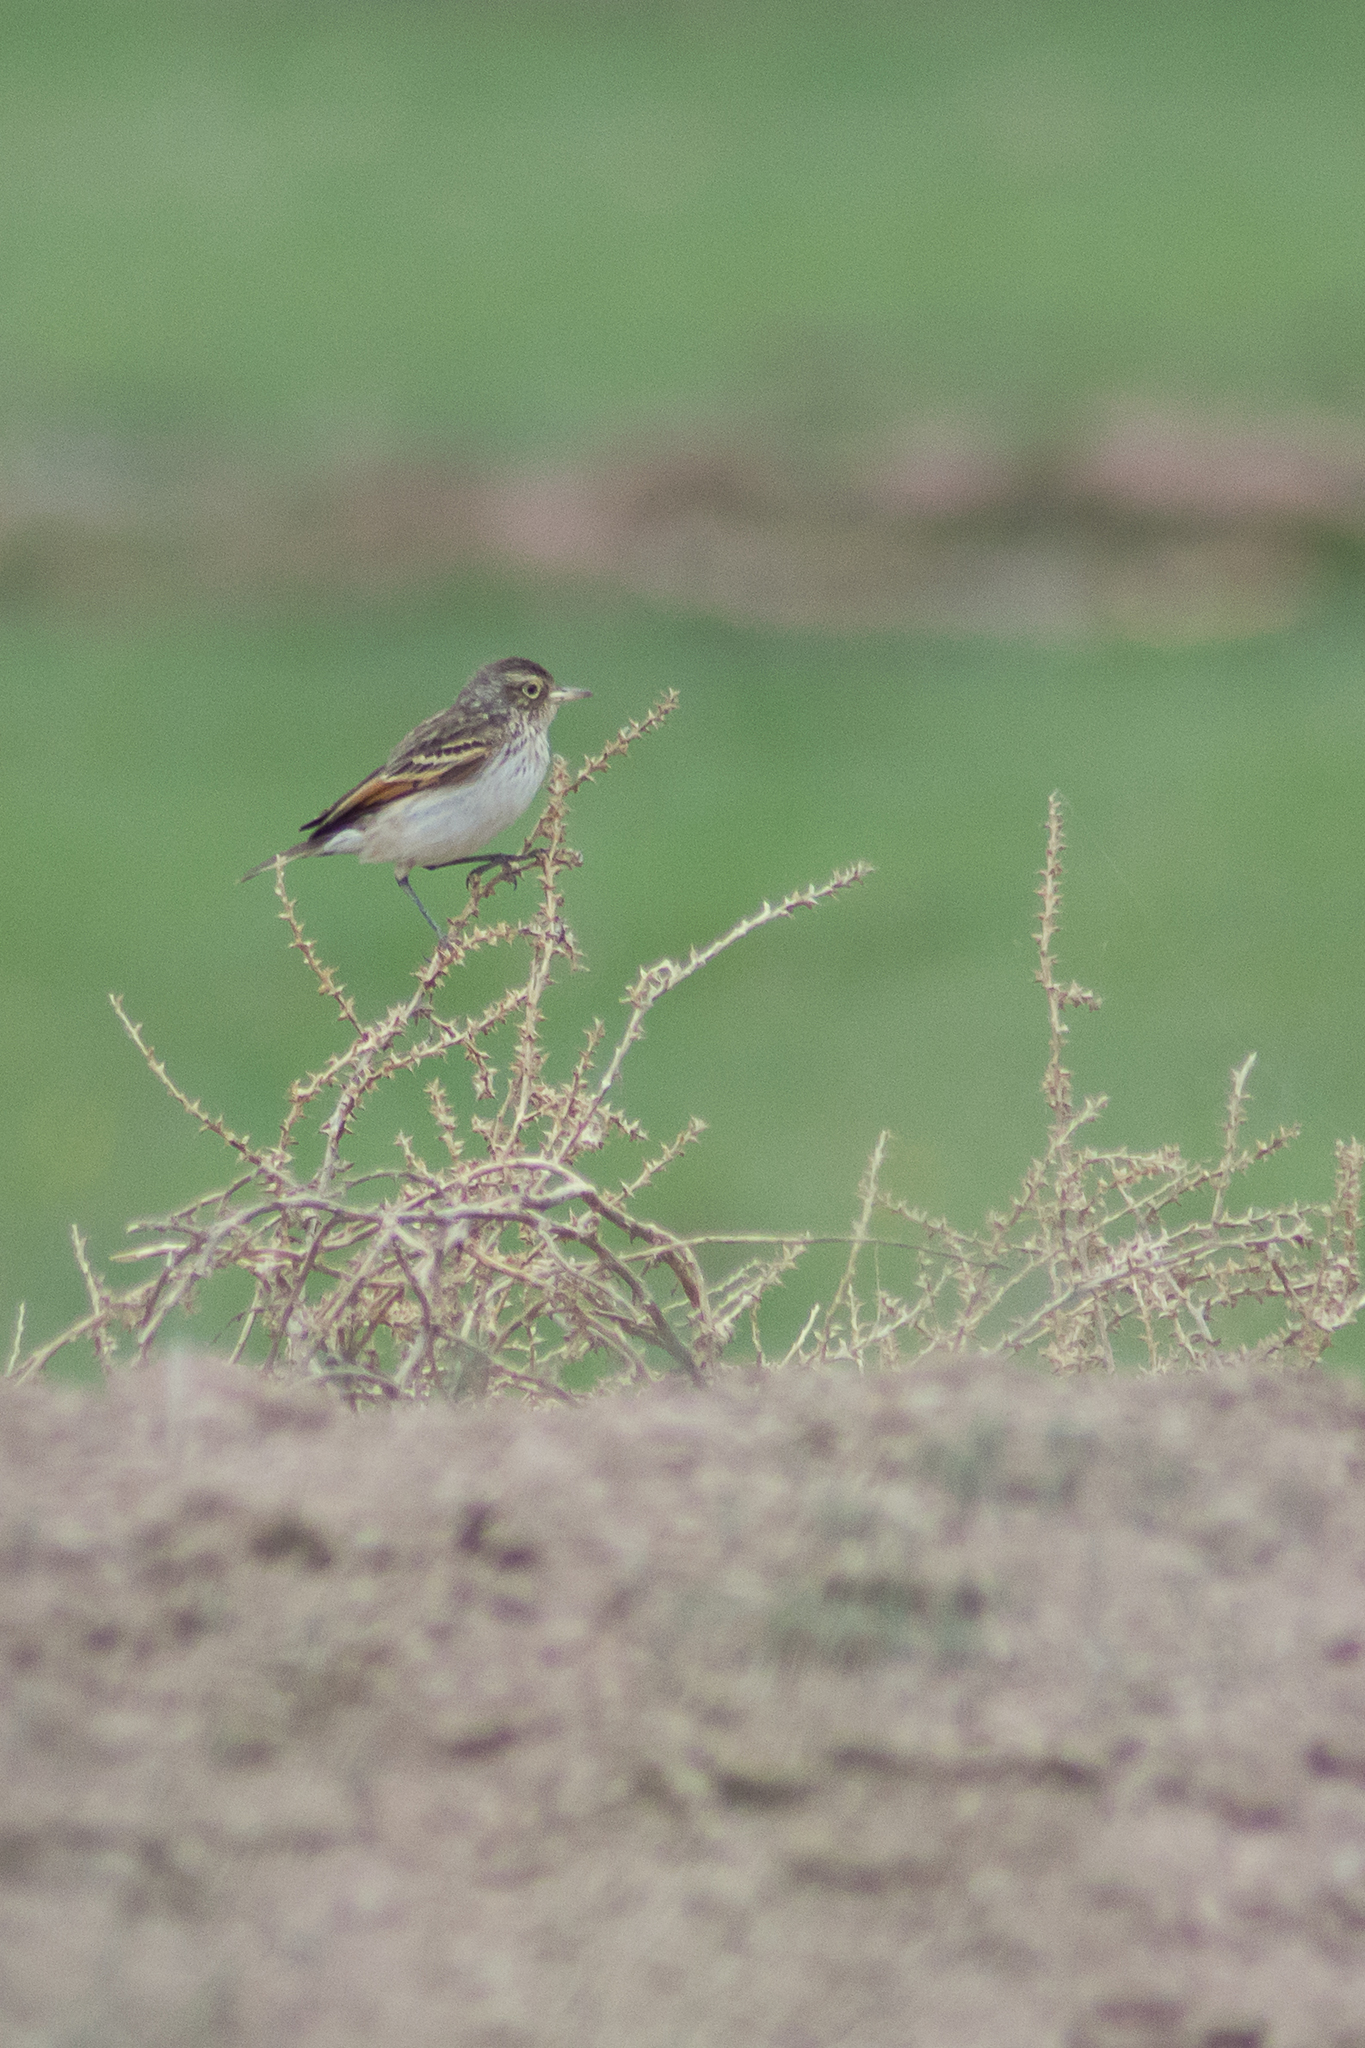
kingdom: Animalia
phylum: Chordata
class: Aves
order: Passeriformes
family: Tyrannidae
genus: Hymenops
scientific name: Hymenops perspicillatus
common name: Spectacled tyrant
